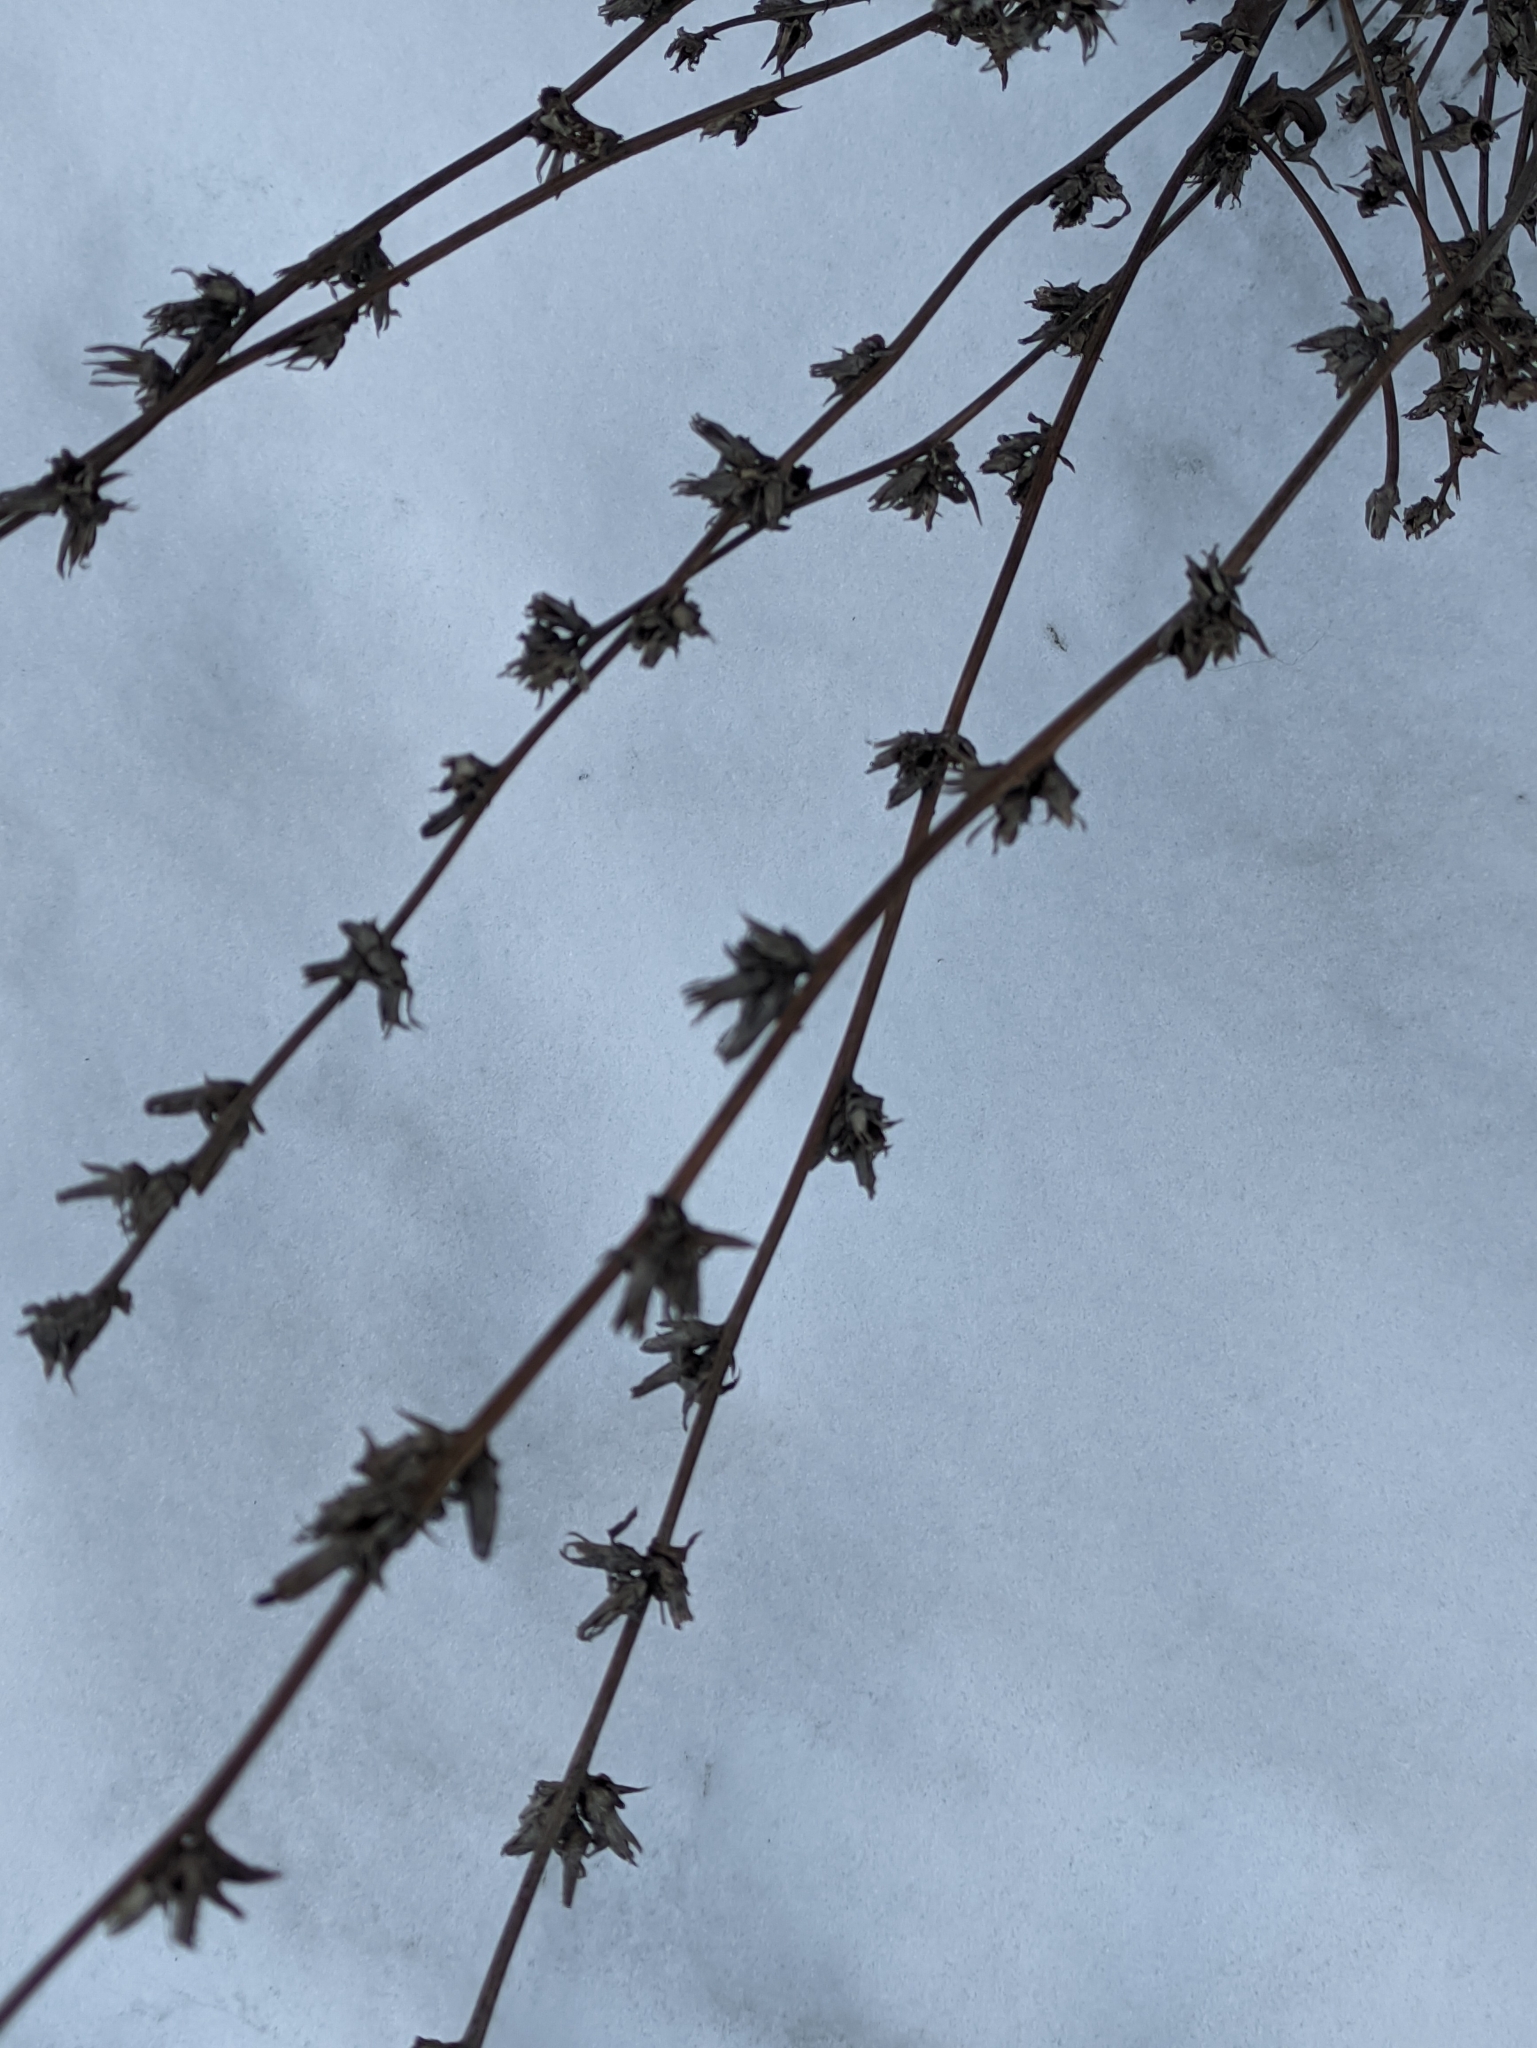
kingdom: Plantae
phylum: Tracheophyta
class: Magnoliopsida
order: Asterales
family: Asteraceae
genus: Cichorium
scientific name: Cichorium intybus
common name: Chicory
